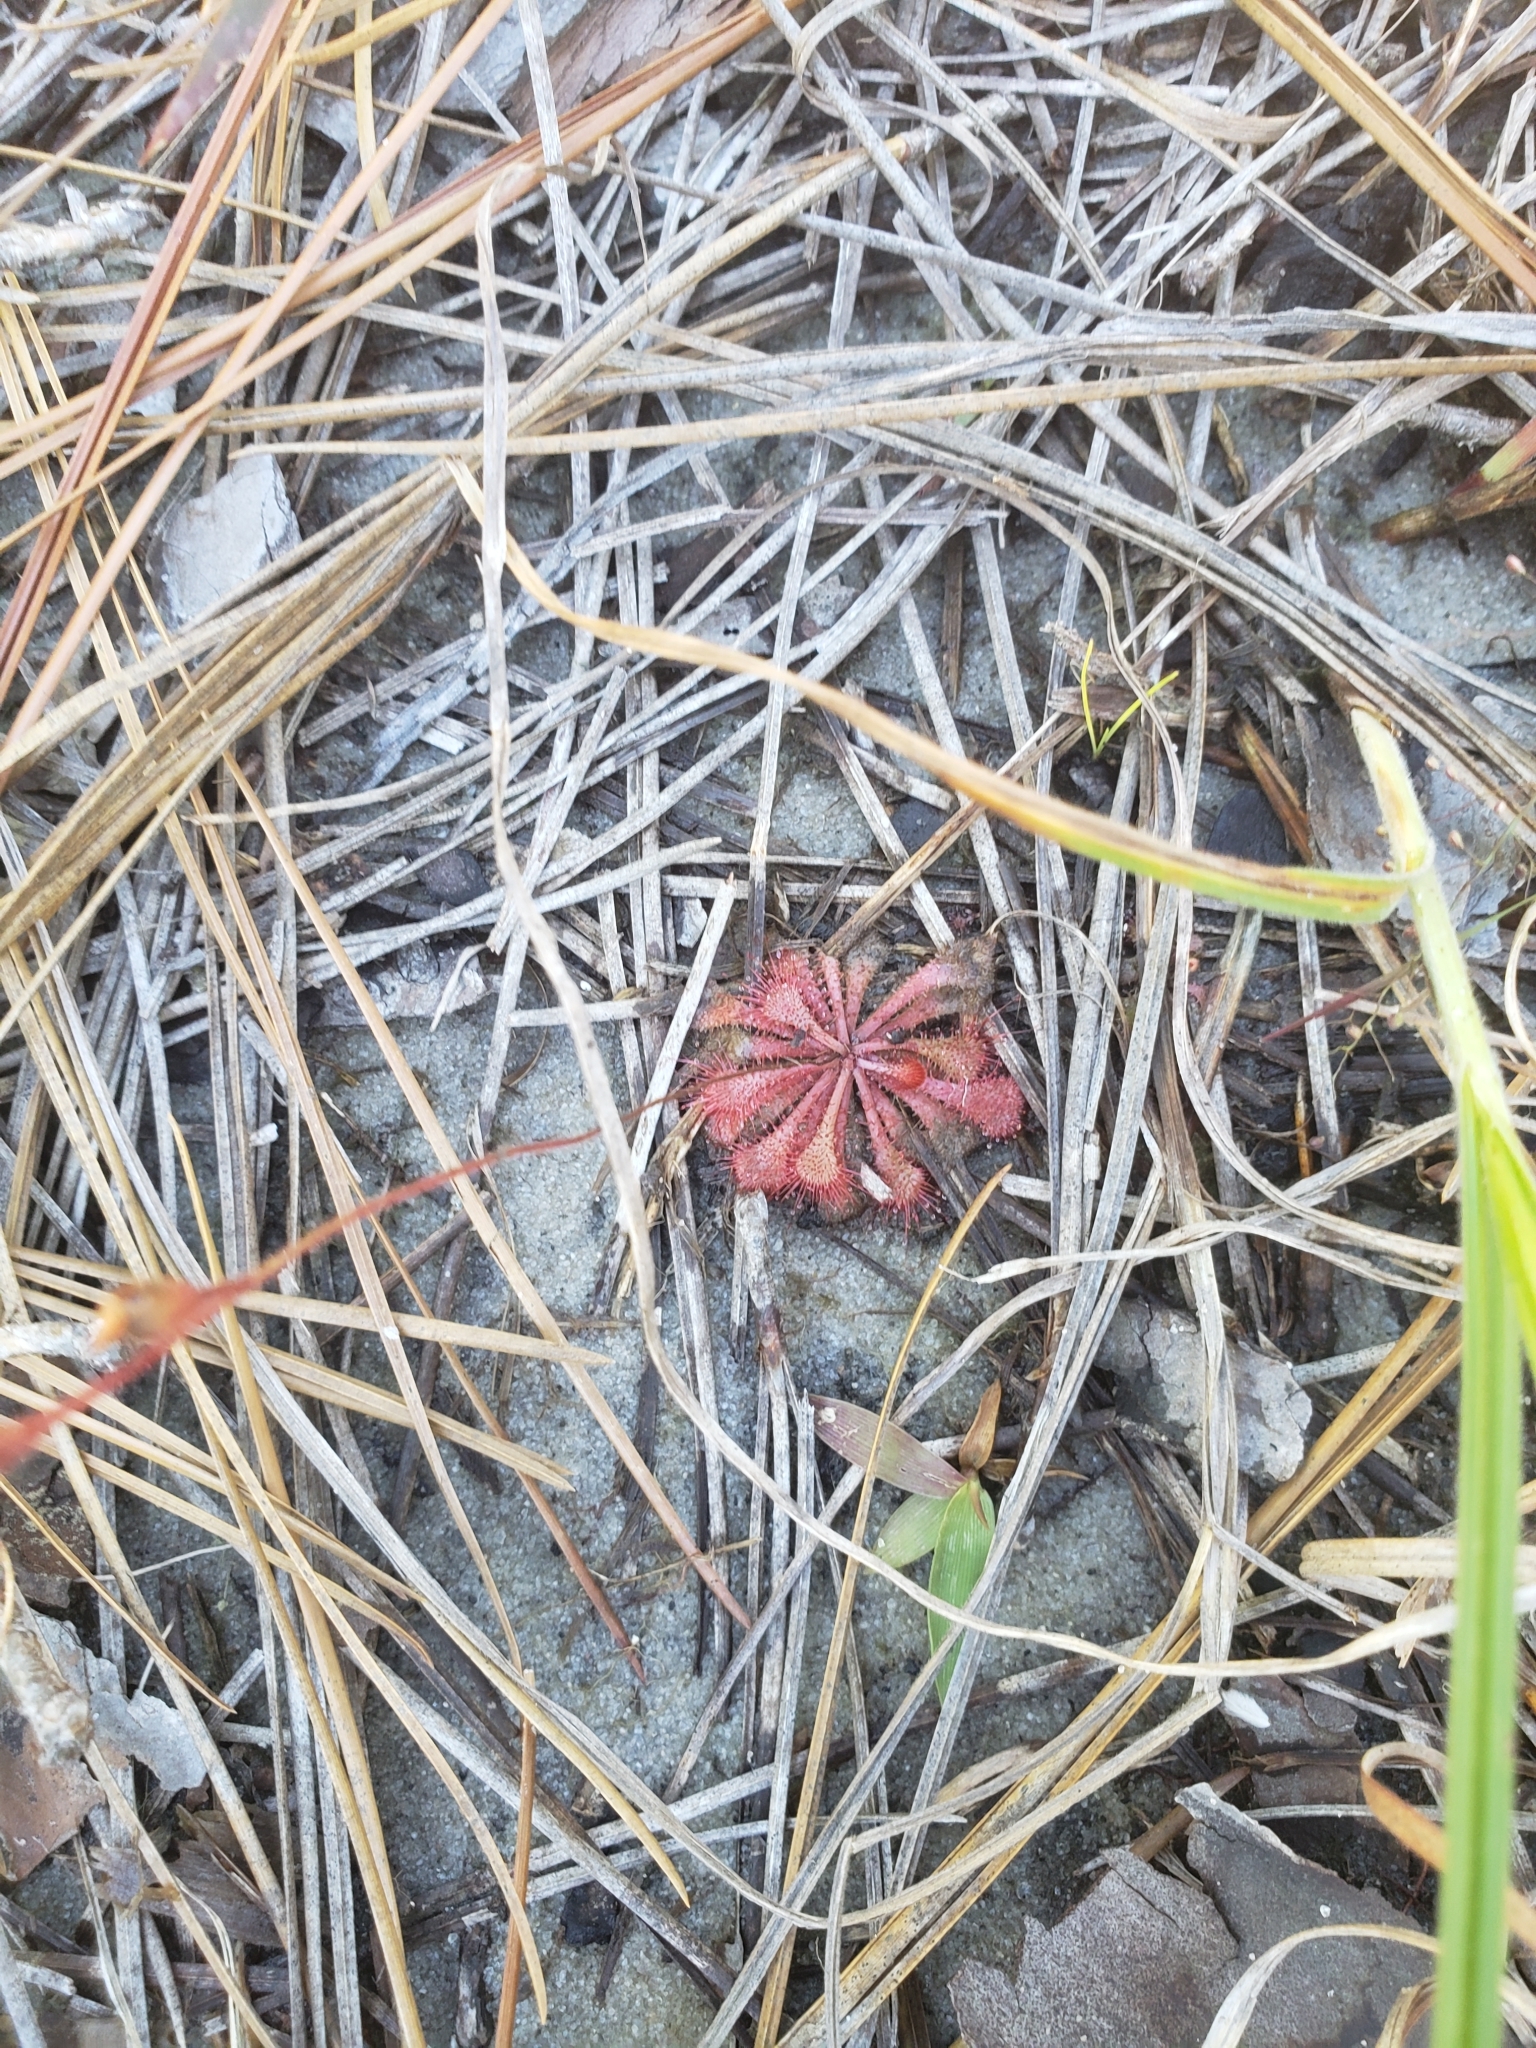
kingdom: Plantae
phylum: Tracheophyta
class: Magnoliopsida
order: Caryophyllales
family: Droseraceae
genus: Drosera
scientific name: Drosera brevifolia
